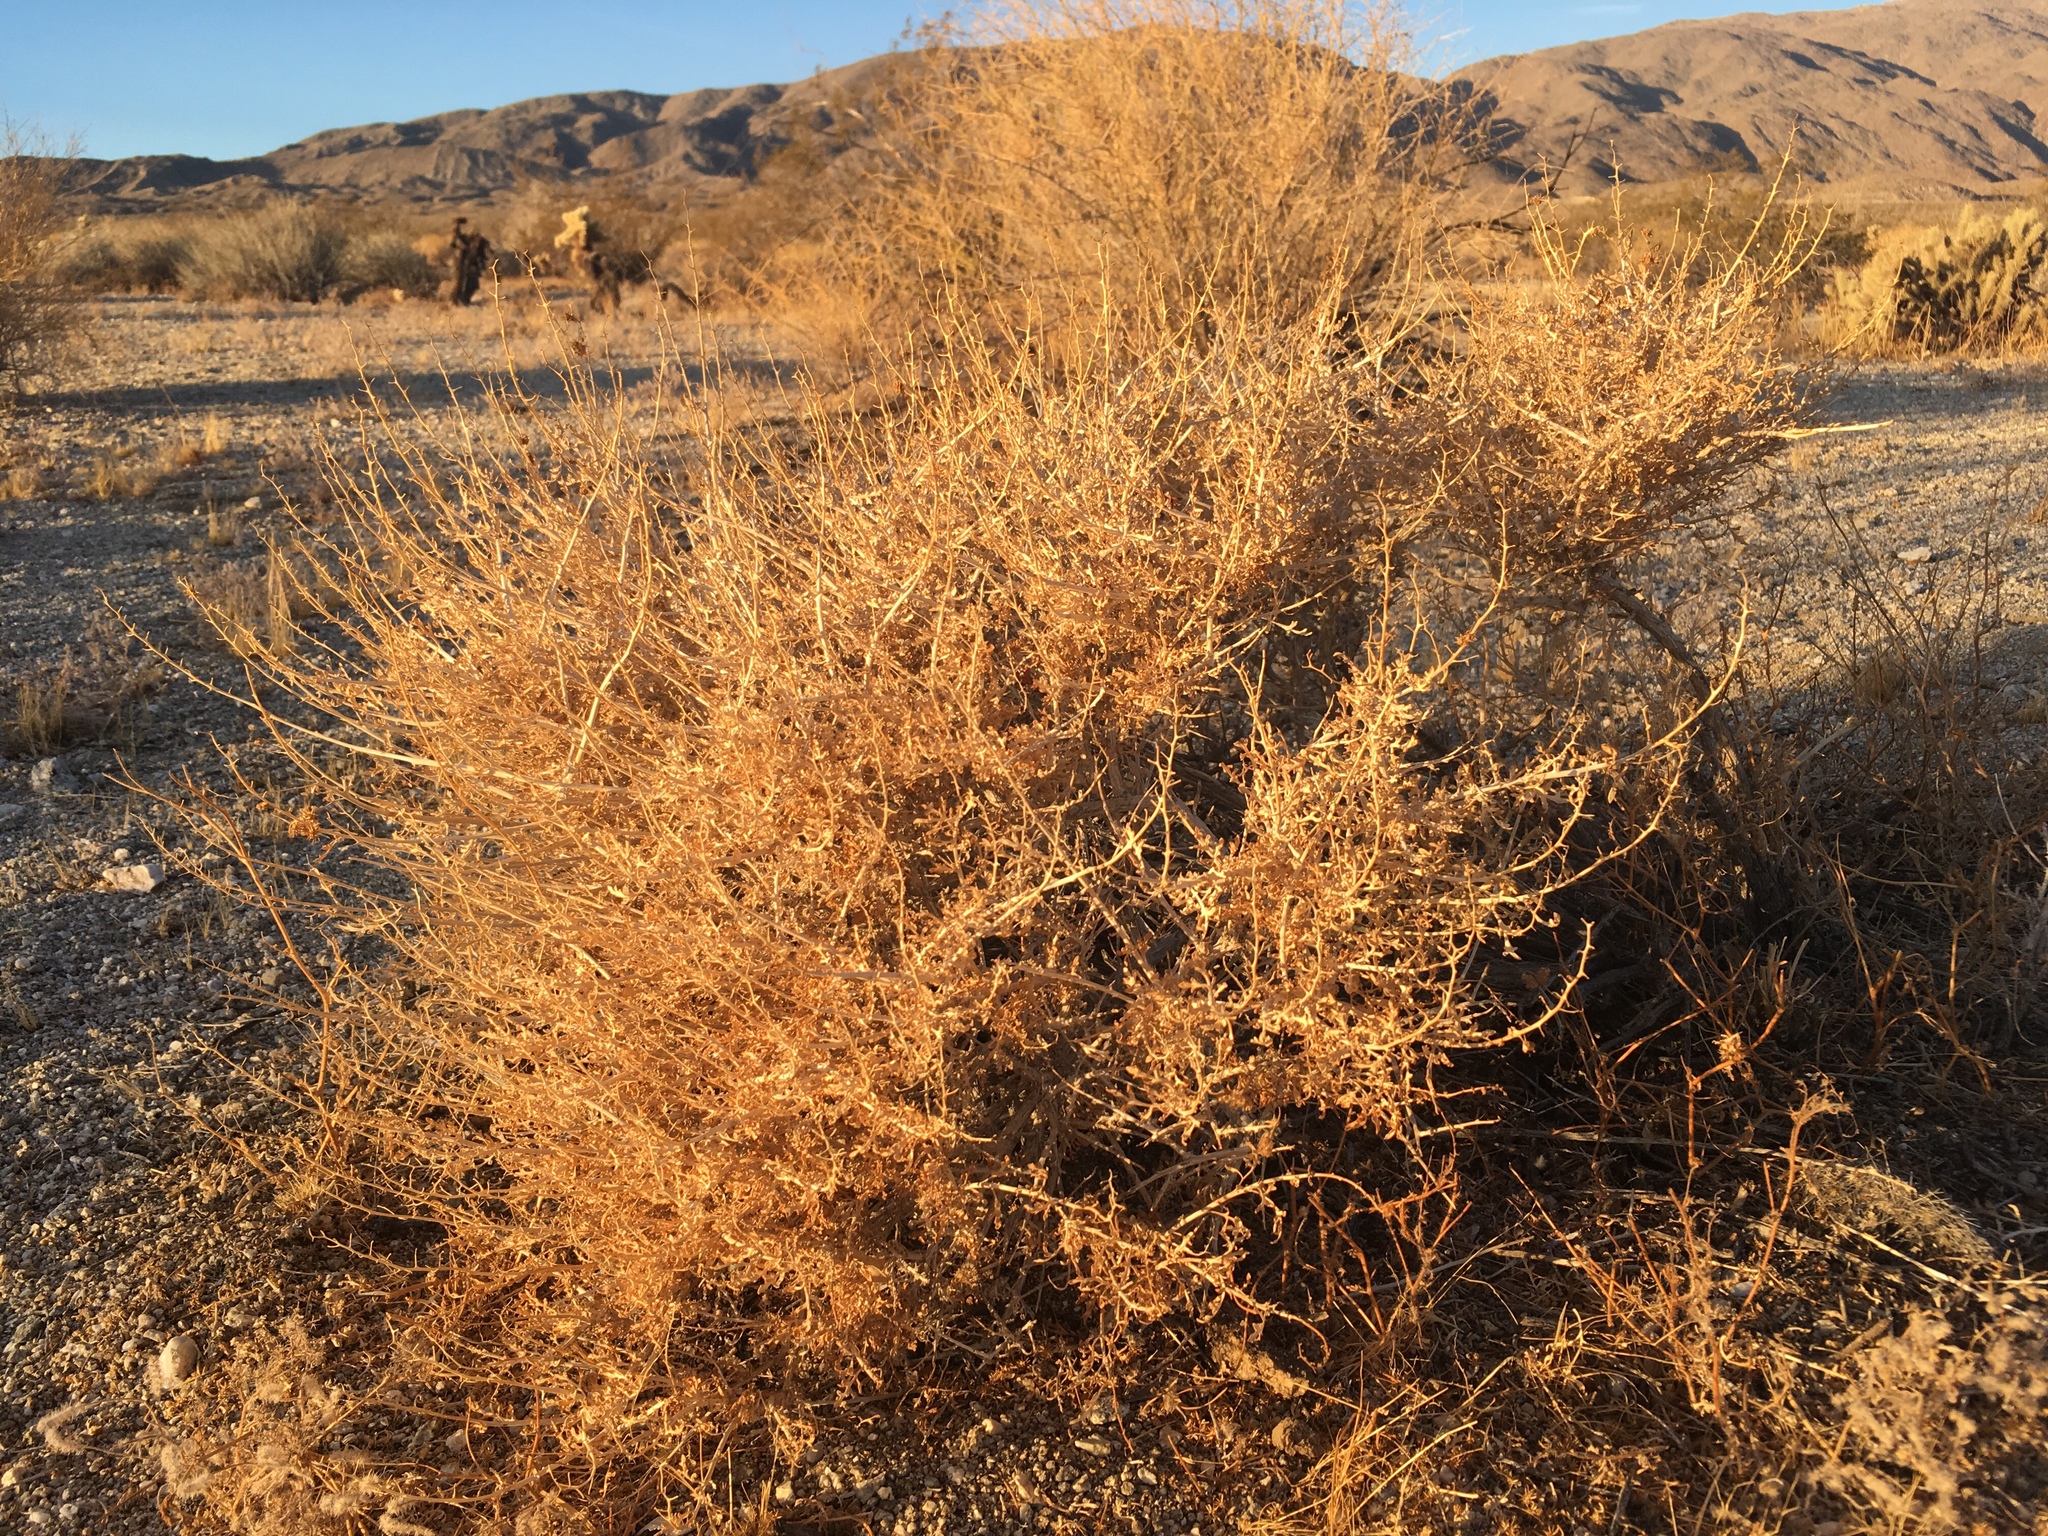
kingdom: Plantae
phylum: Tracheophyta
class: Magnoliopsida
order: Asterales
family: Asteraceae
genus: Ambrosia
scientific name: Ambrosia dumosa
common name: Bur-sage
